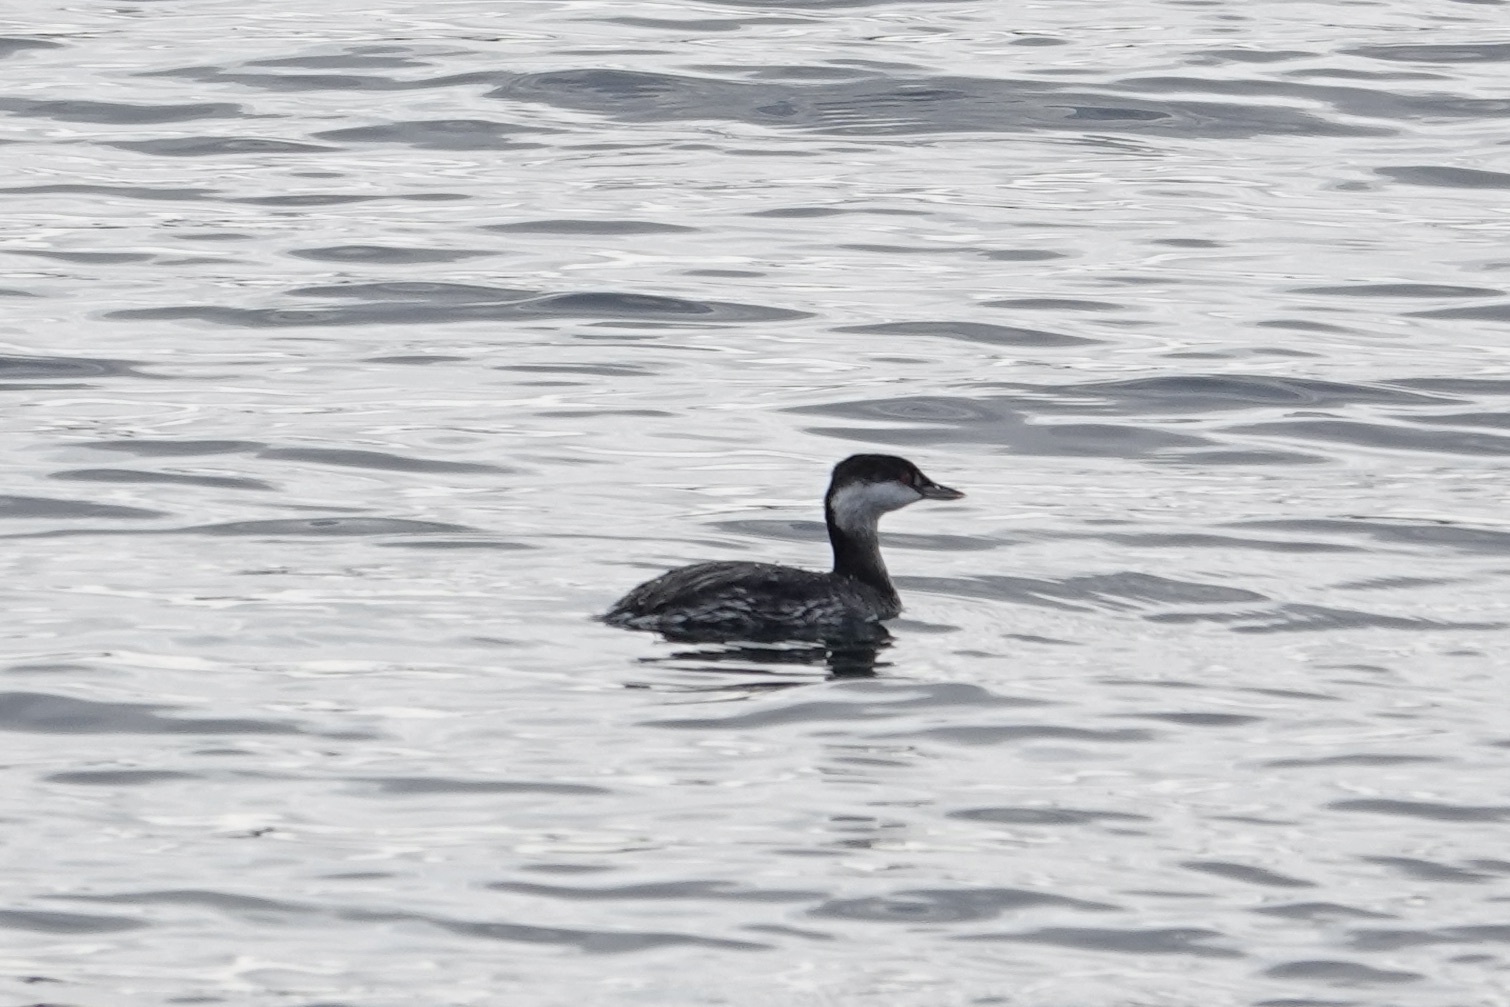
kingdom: Animalia
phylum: Chordata
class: Aves
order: Podicipediformes
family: Podicipedidae
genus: Podiceps
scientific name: Podiceps auritus
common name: Horned grebe
